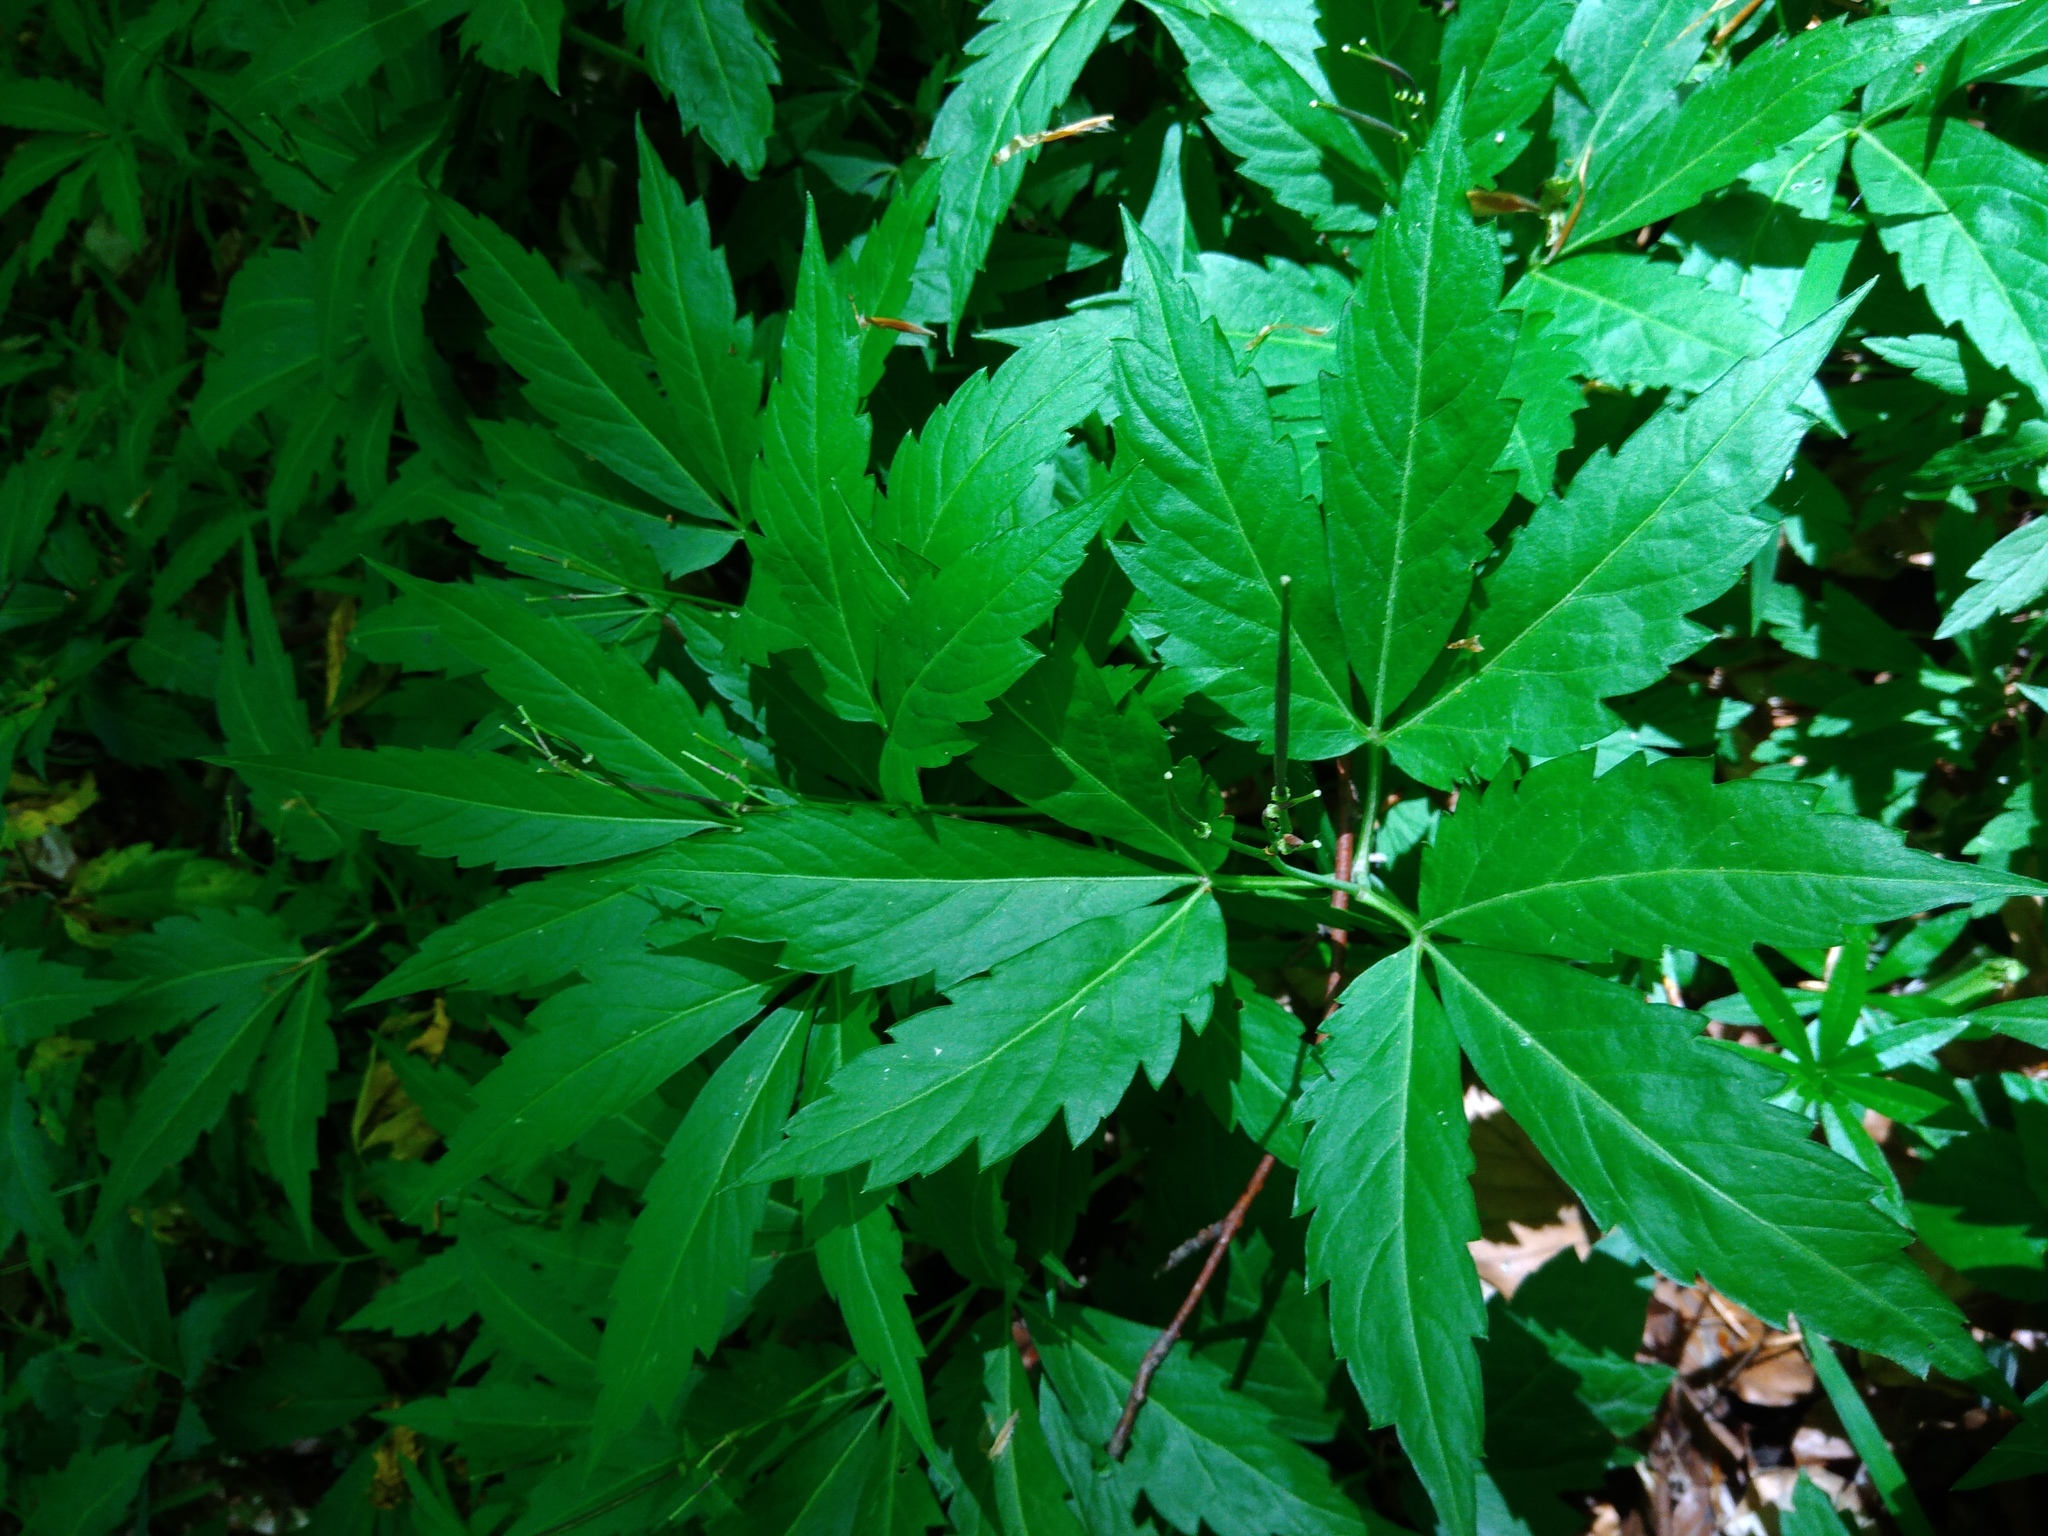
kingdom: Plantae
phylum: Tracheophyta
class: Magnoliopsida
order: Brassicales
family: Brassicaceae
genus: Cardamine
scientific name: Cardamine glanduligera
